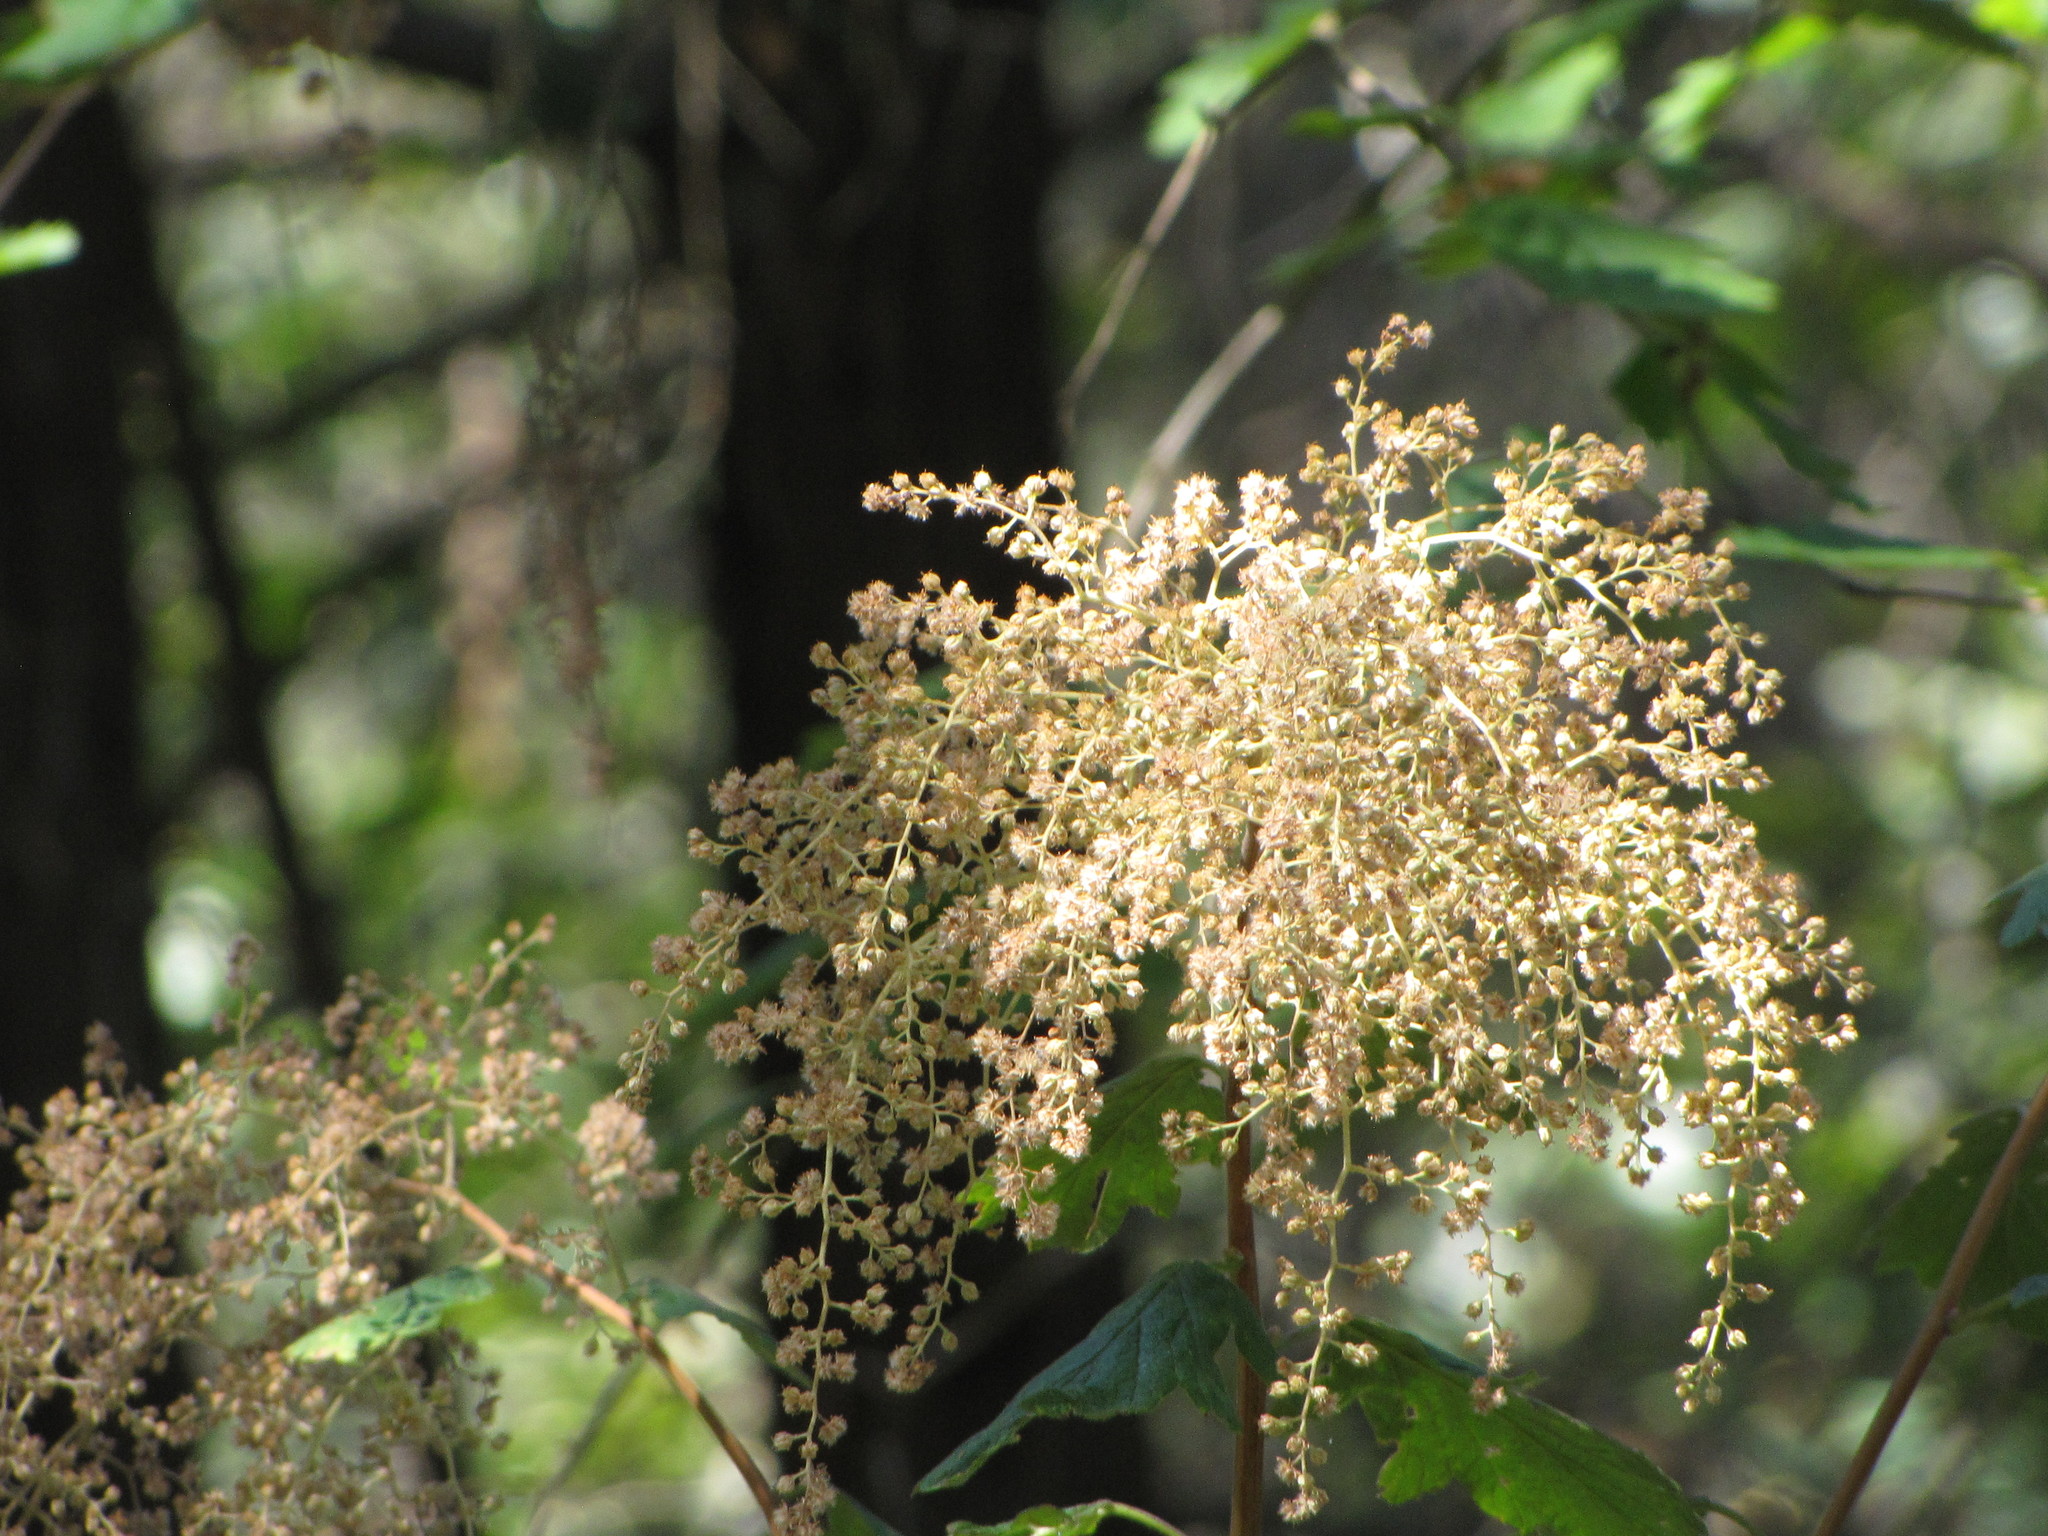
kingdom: Plantae
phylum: Tracheophyta
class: Magnoliopsida
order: Rosales
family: Rosaceae
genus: Holodiscus
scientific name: Holodiscus discolor
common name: Oceanspray
